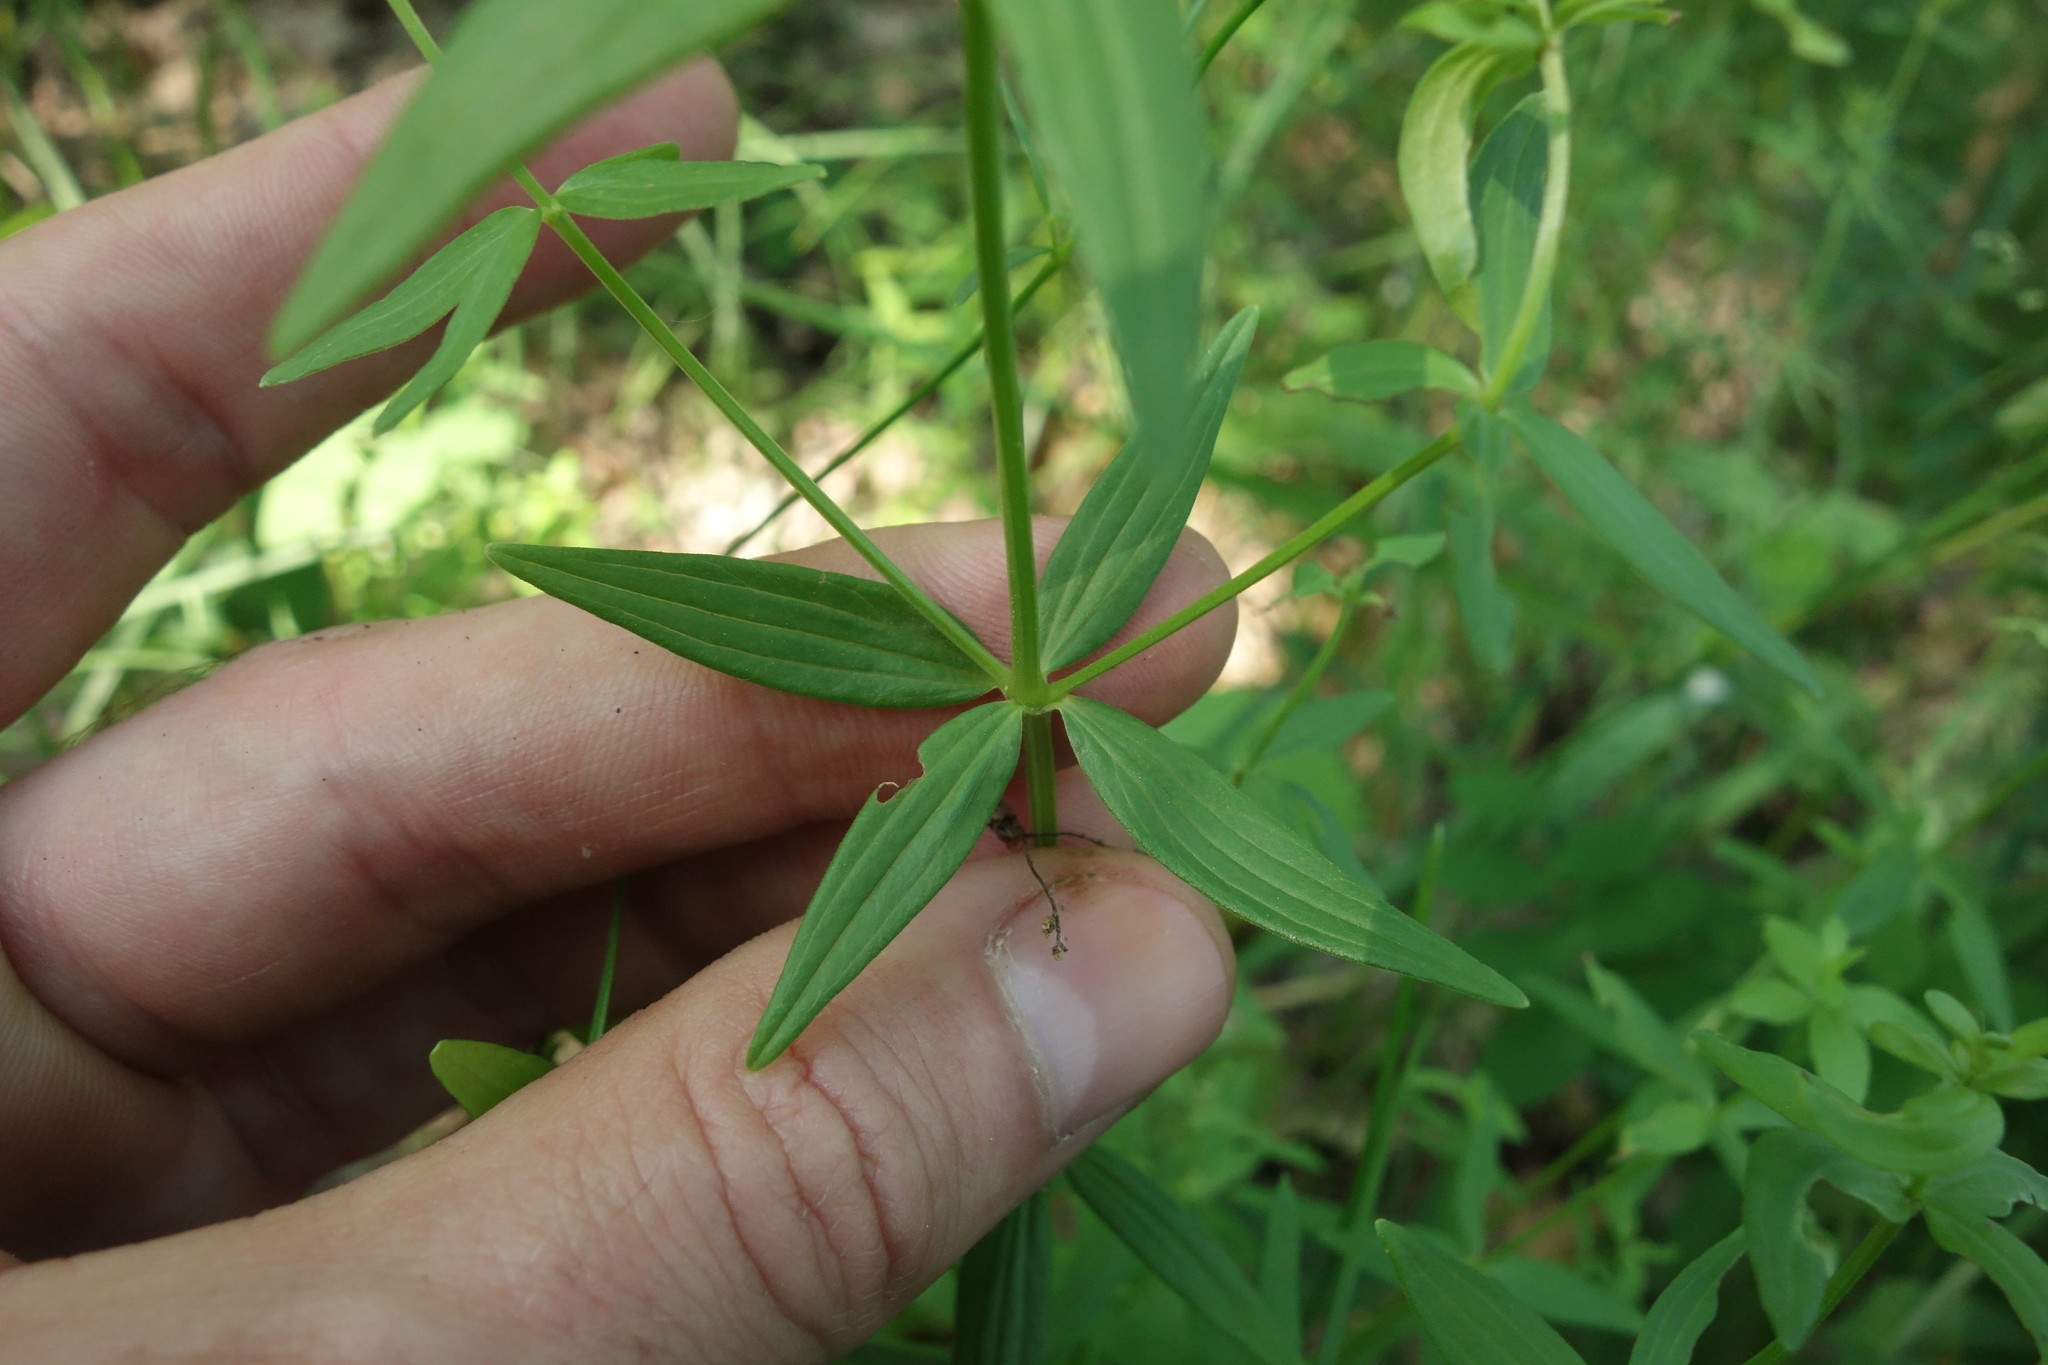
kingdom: Plantae
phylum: Tracheophyta
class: Magnoliopsida
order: Gentianales
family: Rubiaceae
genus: Galium
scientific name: Galium boreale
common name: Northern bedstraw
